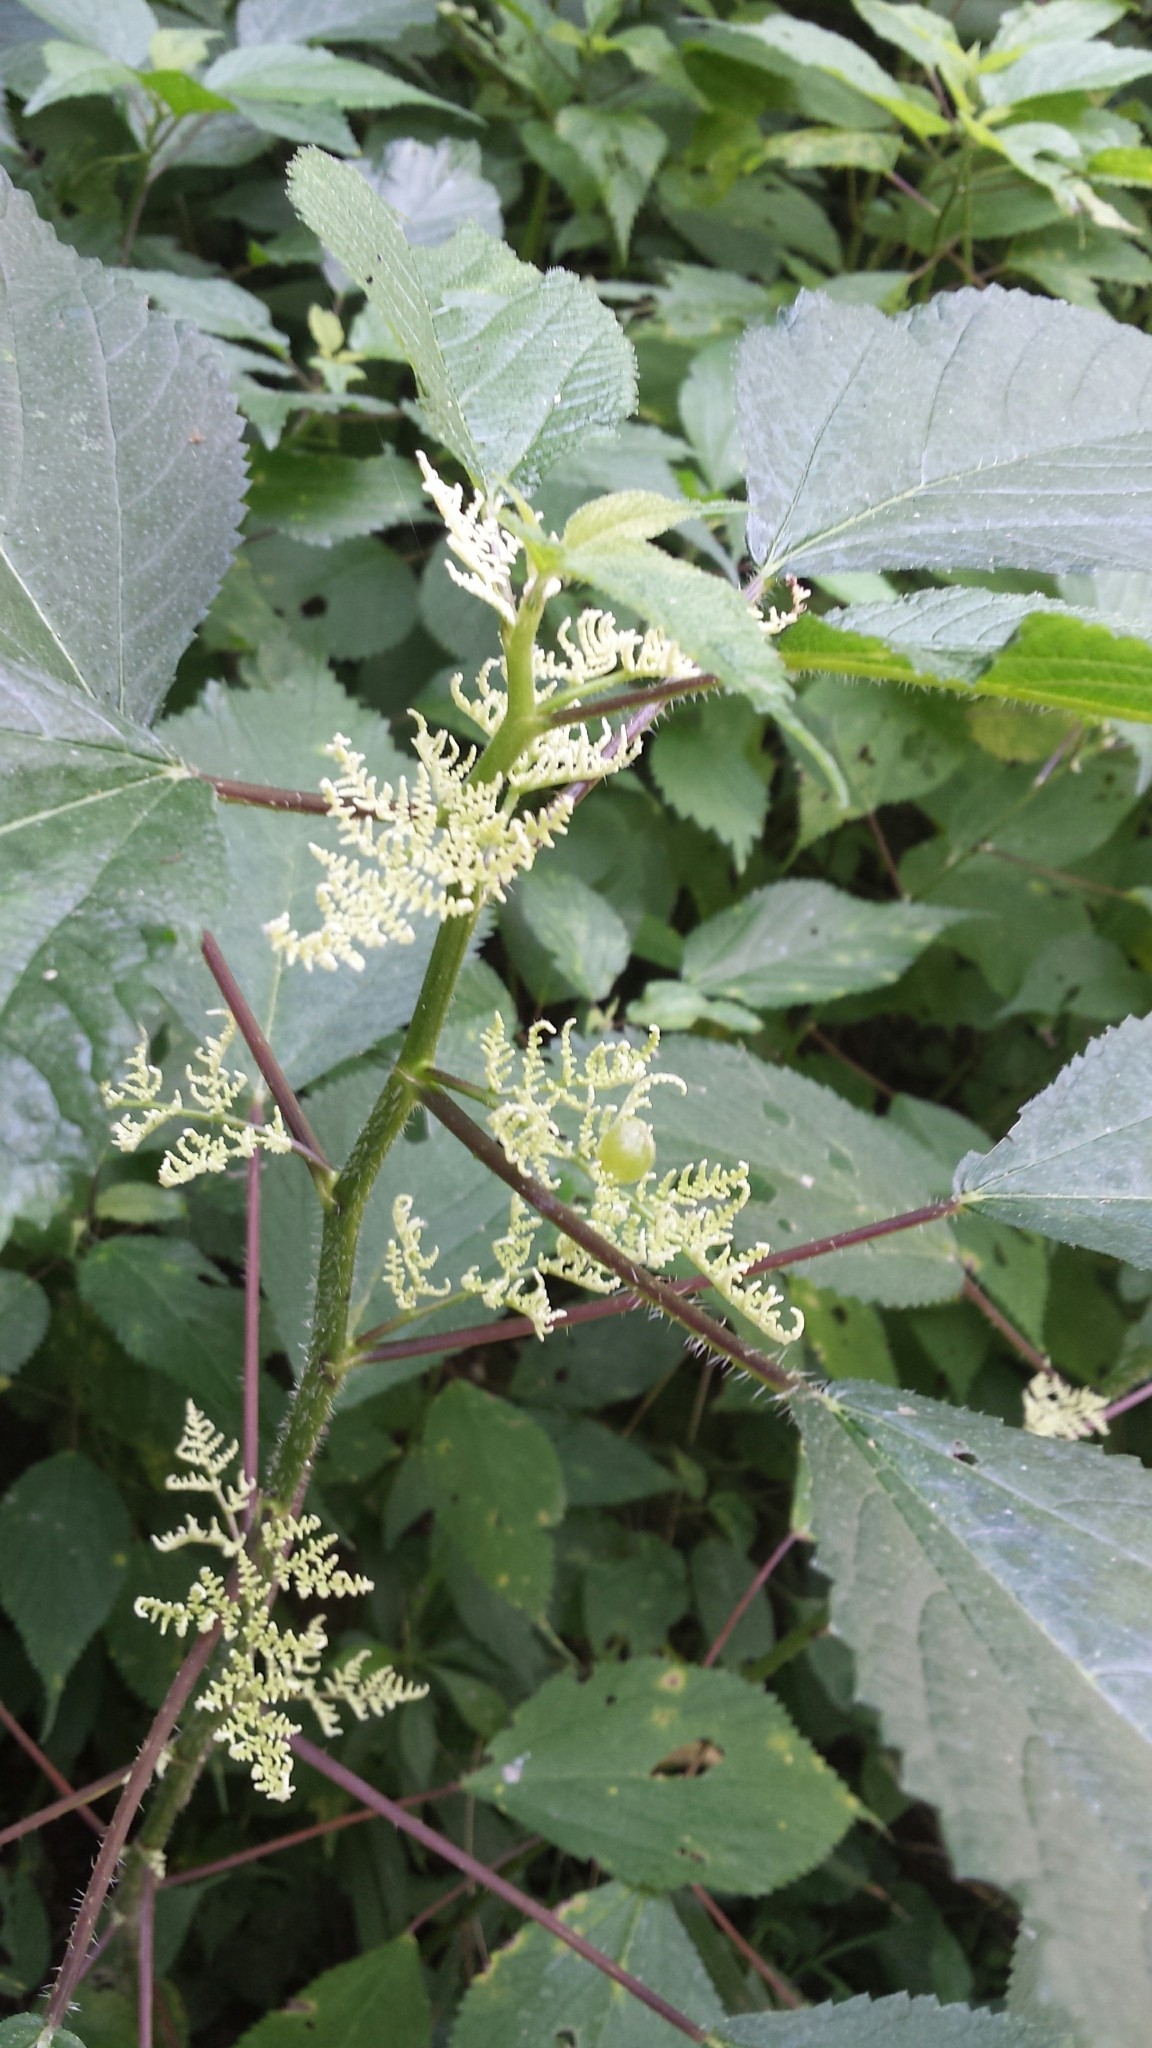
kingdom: Plantae
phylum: Tracheophyta
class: Magnoliopsida
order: Rosales
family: Urticaceae
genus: Laportea
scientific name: Laportea canadensis
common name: Canada nettle
